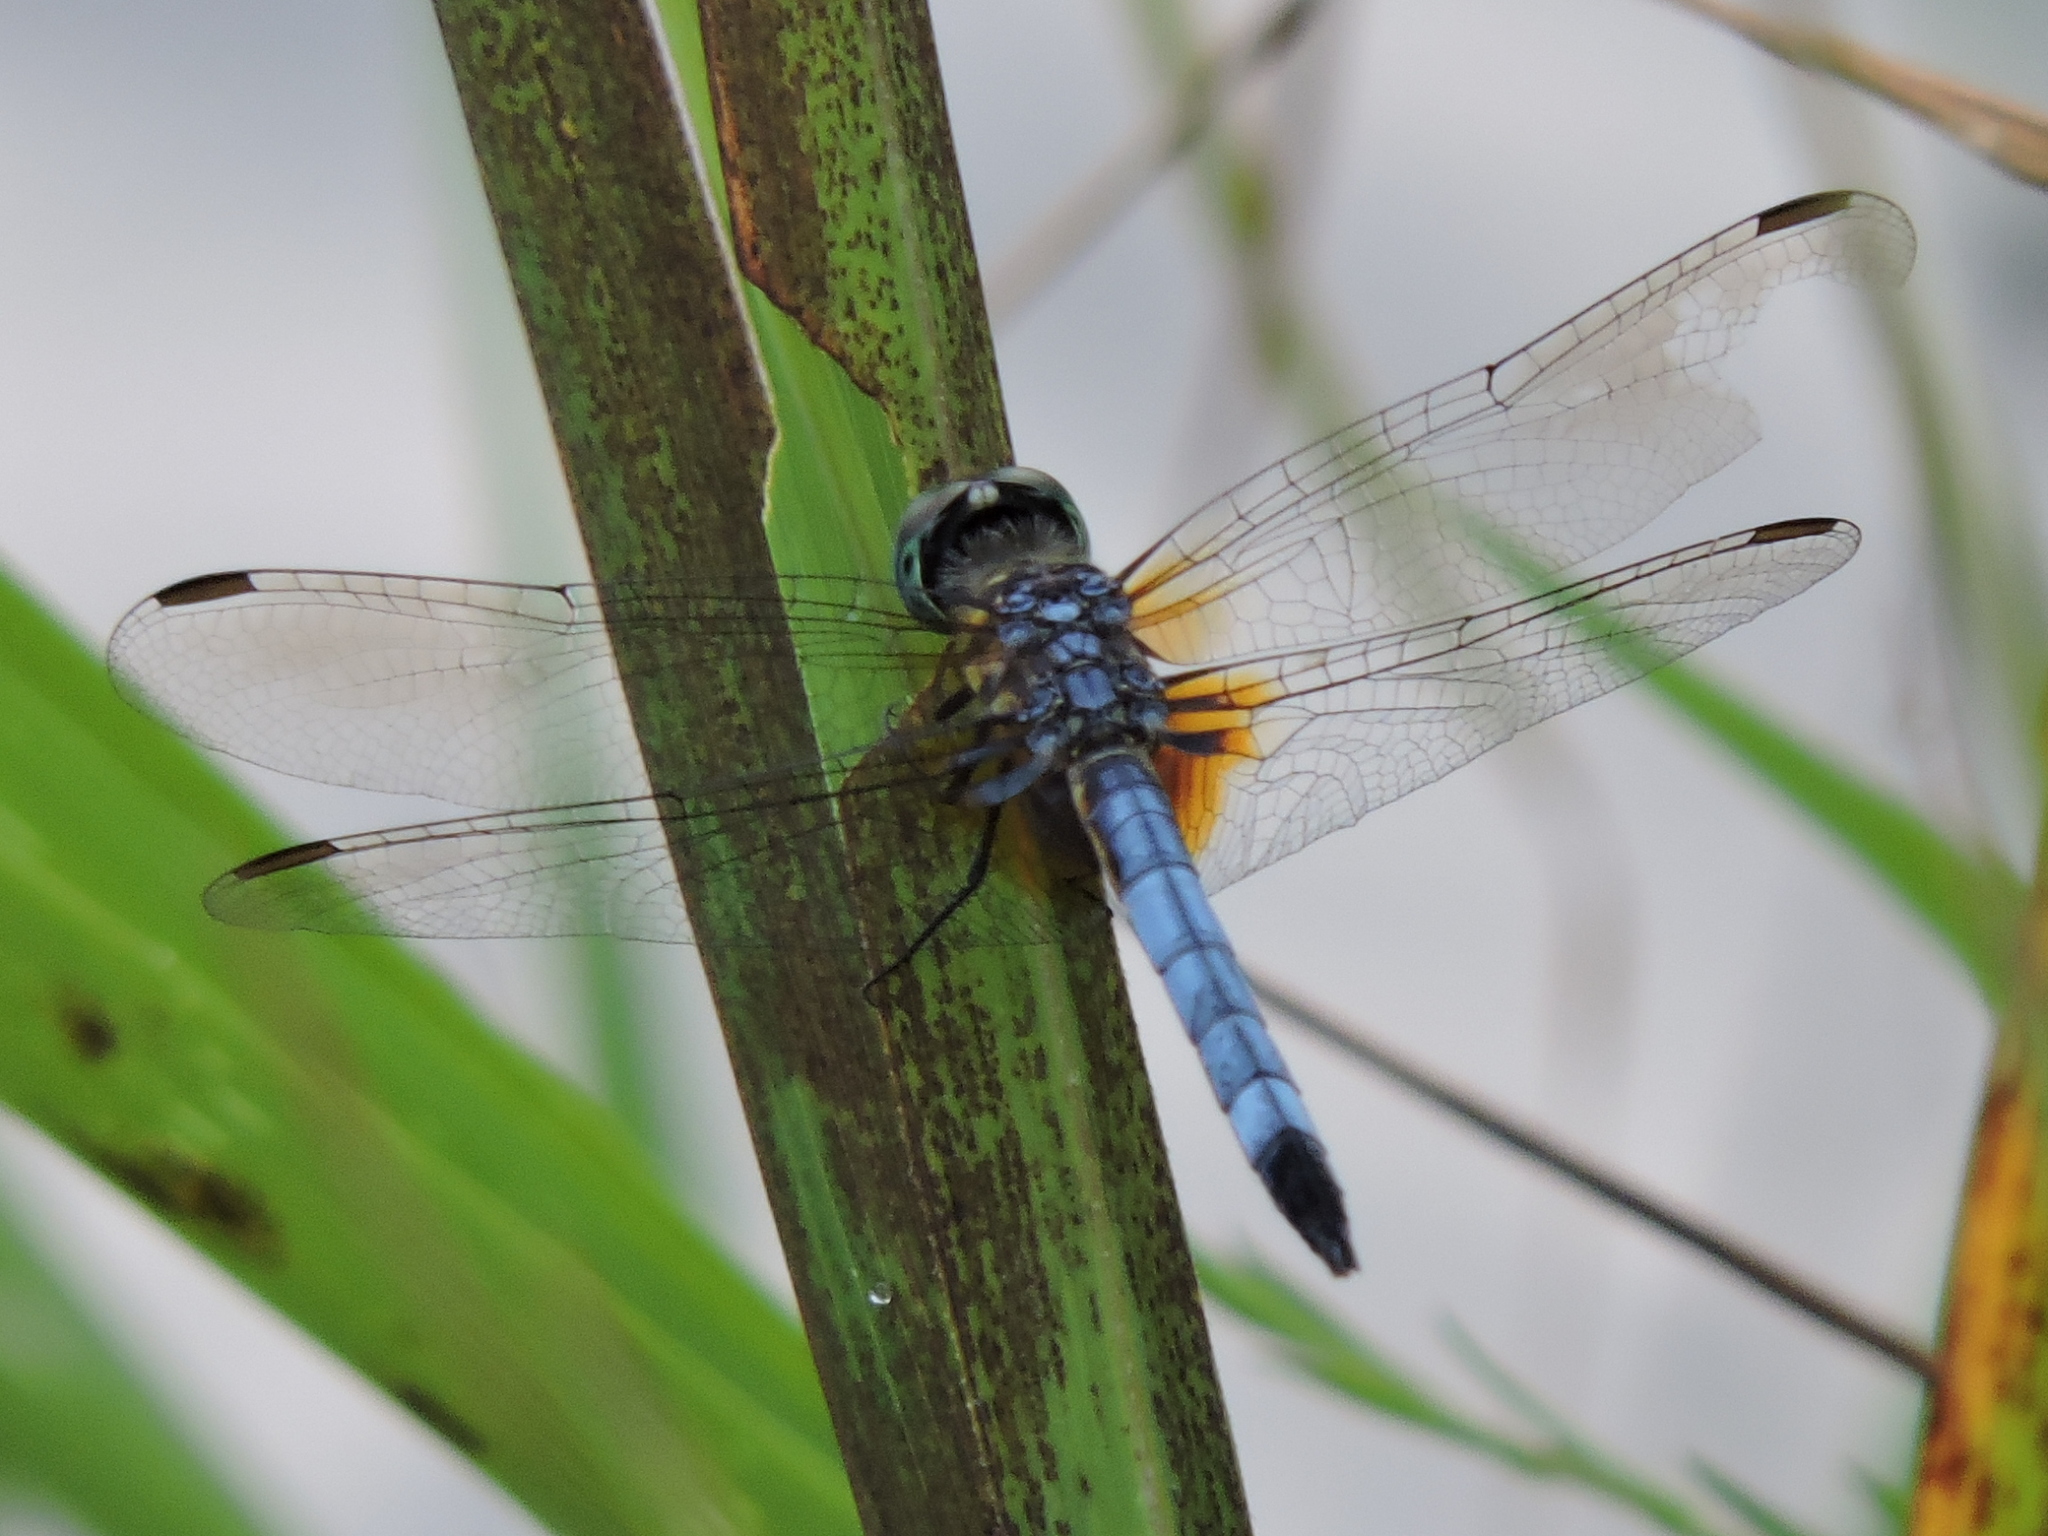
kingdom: Animalia
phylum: Arthropoda
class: Insecta
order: Odonata
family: Libellulidae
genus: Pachydiplax
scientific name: Pachydiplax longipennis
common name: Blue dasher
